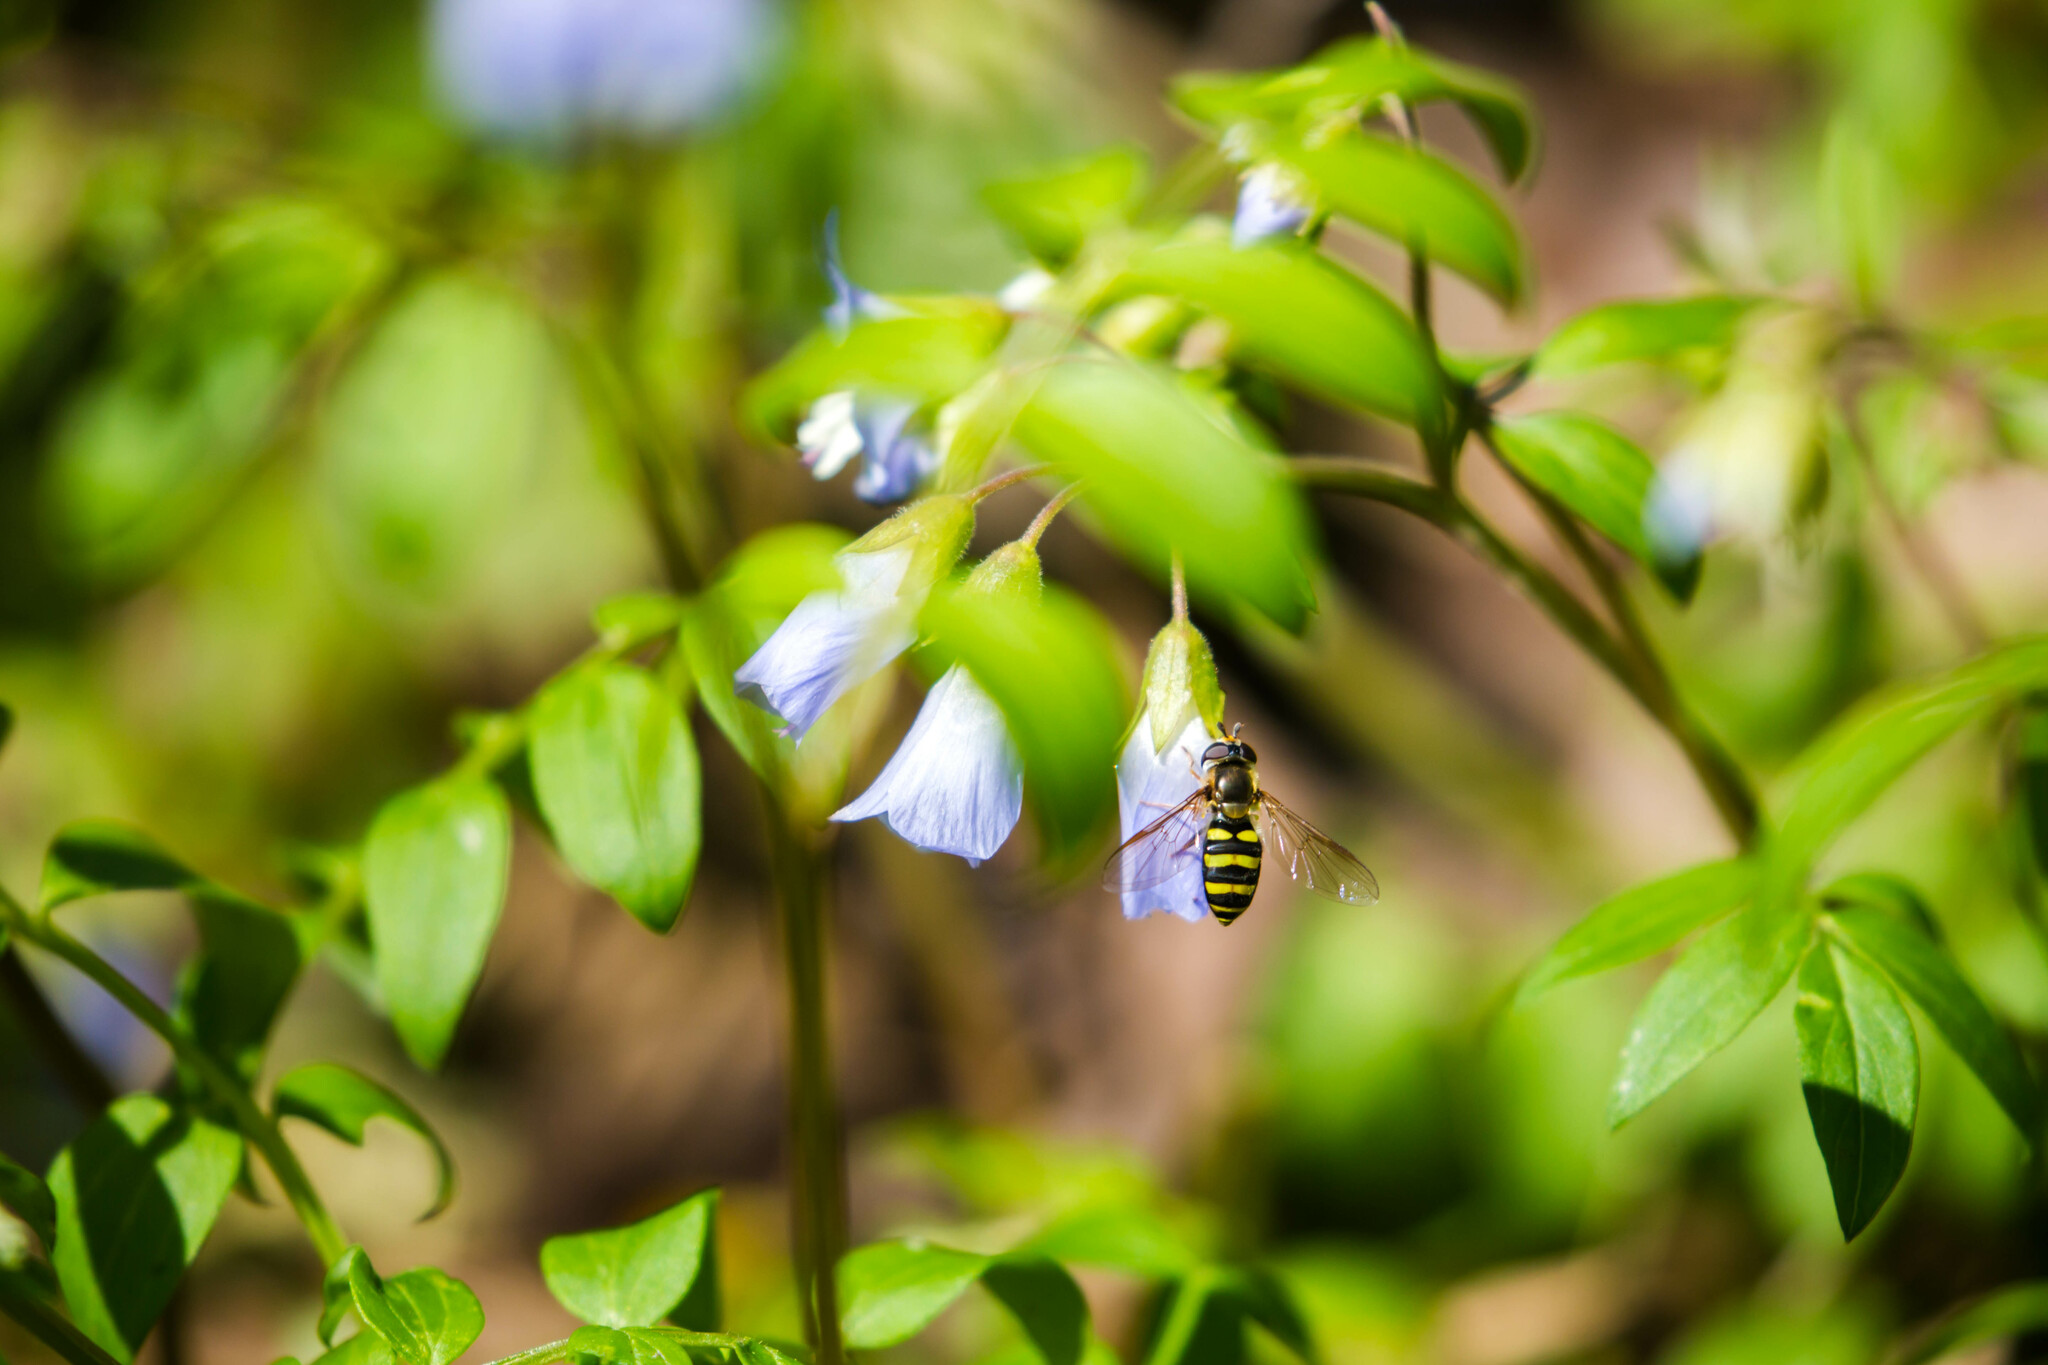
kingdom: Animalia
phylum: Arthropoda
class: Insecta
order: Diptera
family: Syrphidae
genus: Eupeodes
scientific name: Eupeodes
